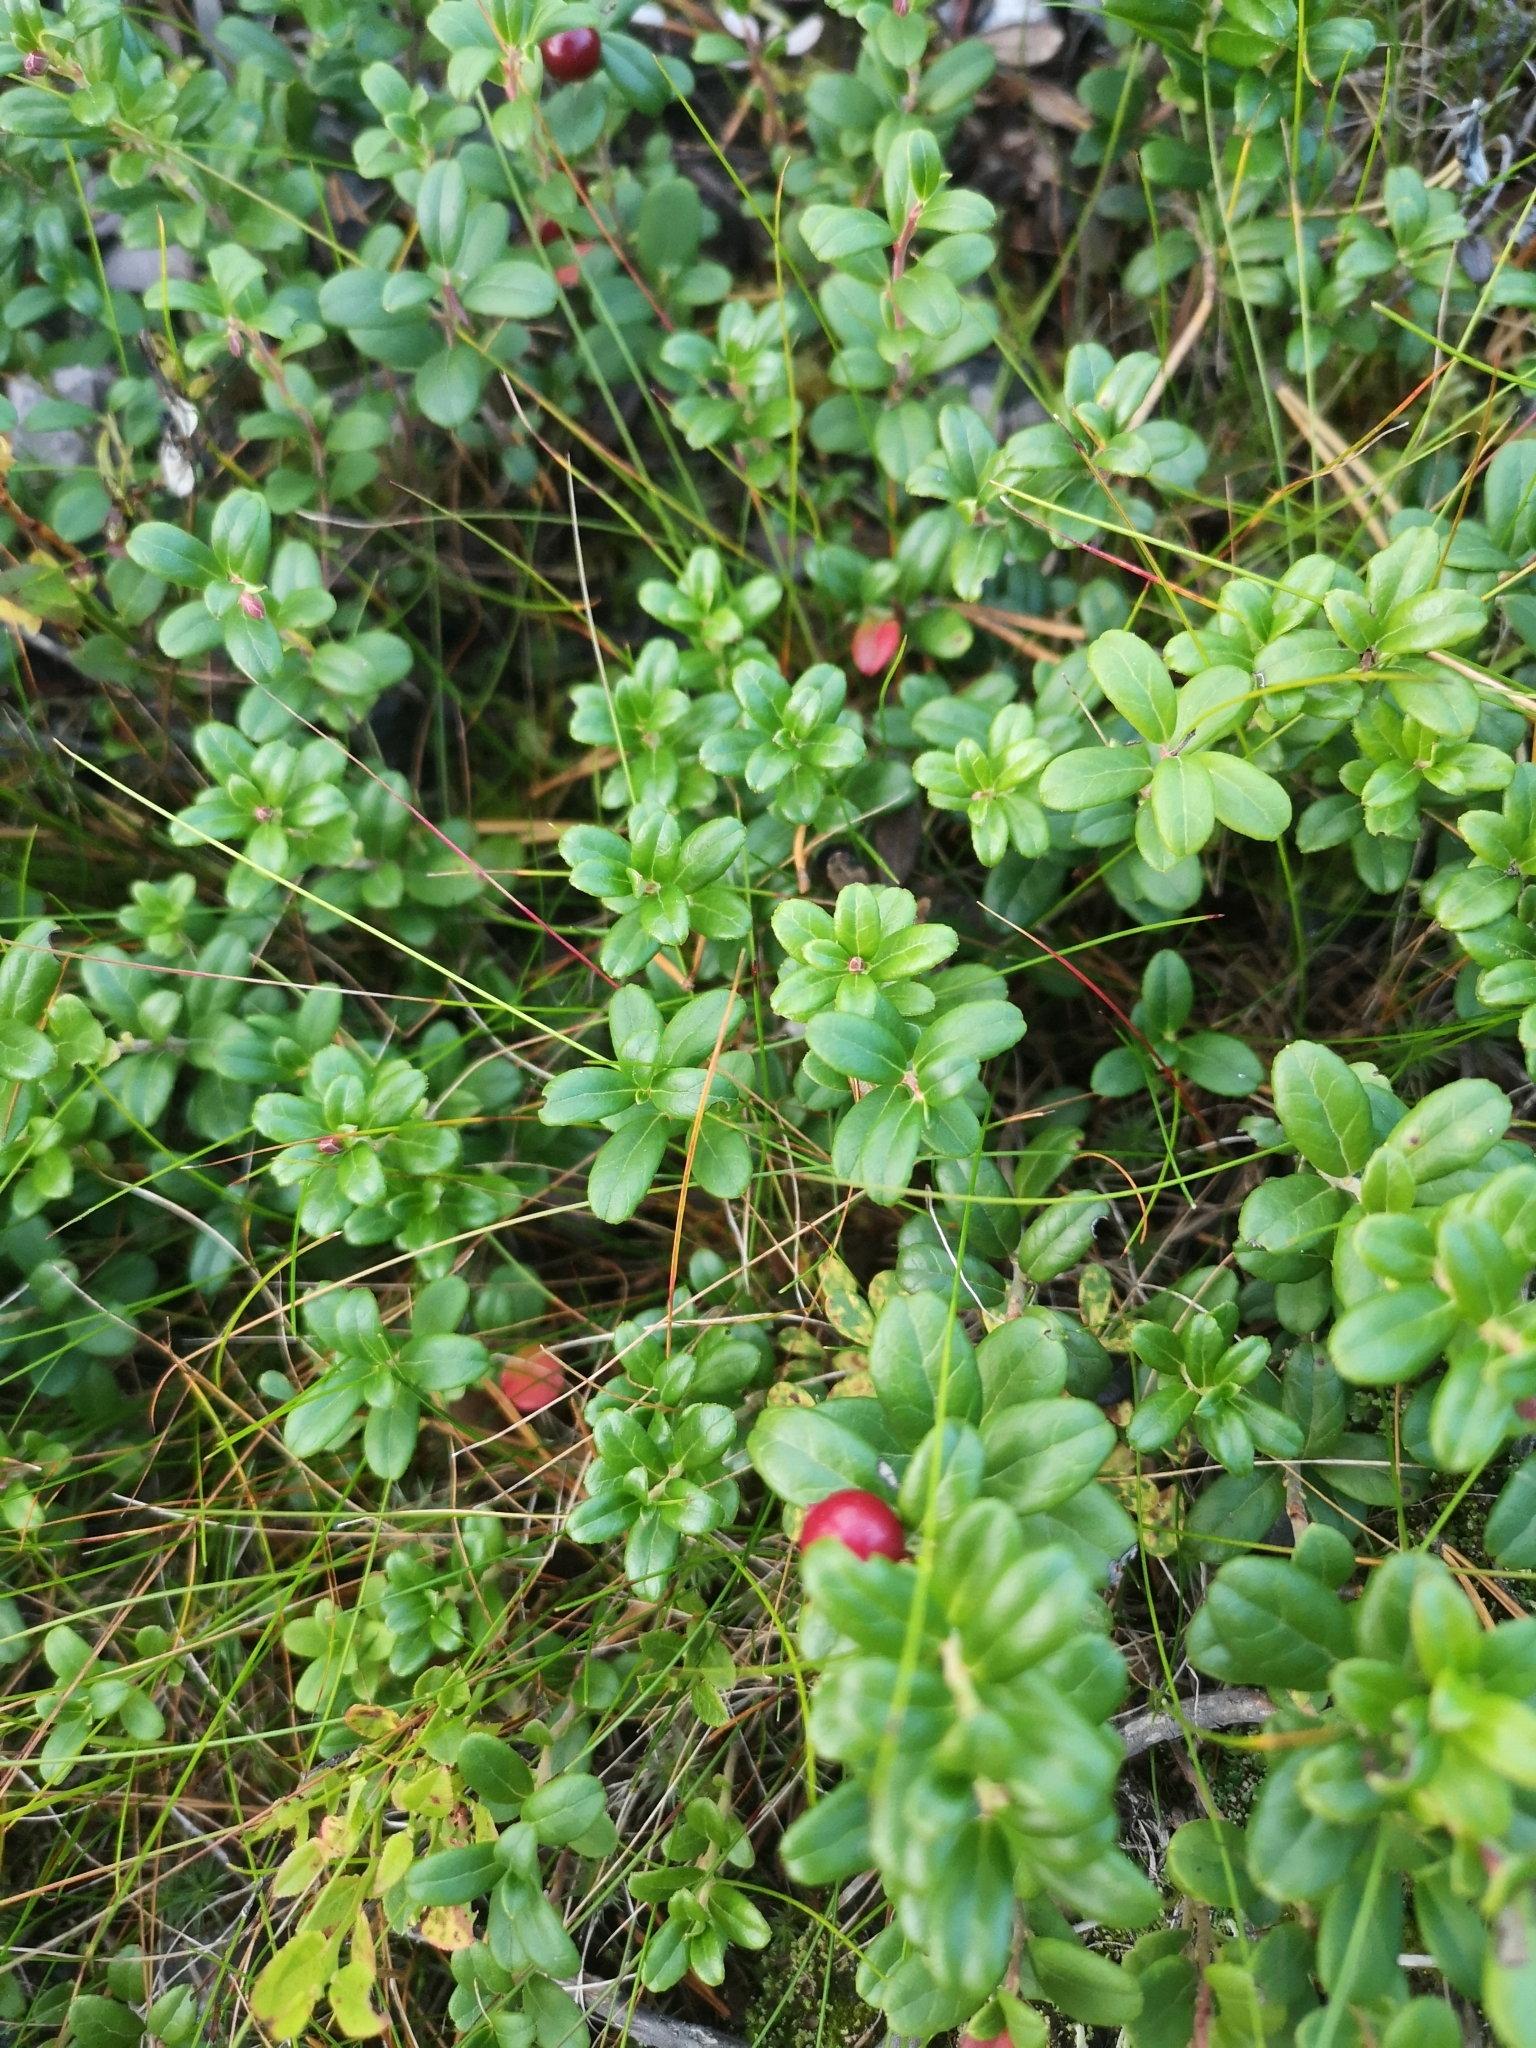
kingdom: Plantae
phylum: Tracheophyta
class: Magnoliopsida
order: Ericales
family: Ericaceae
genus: Vaccinium
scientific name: Vaccinium vitis-idaea
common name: Cowberry
